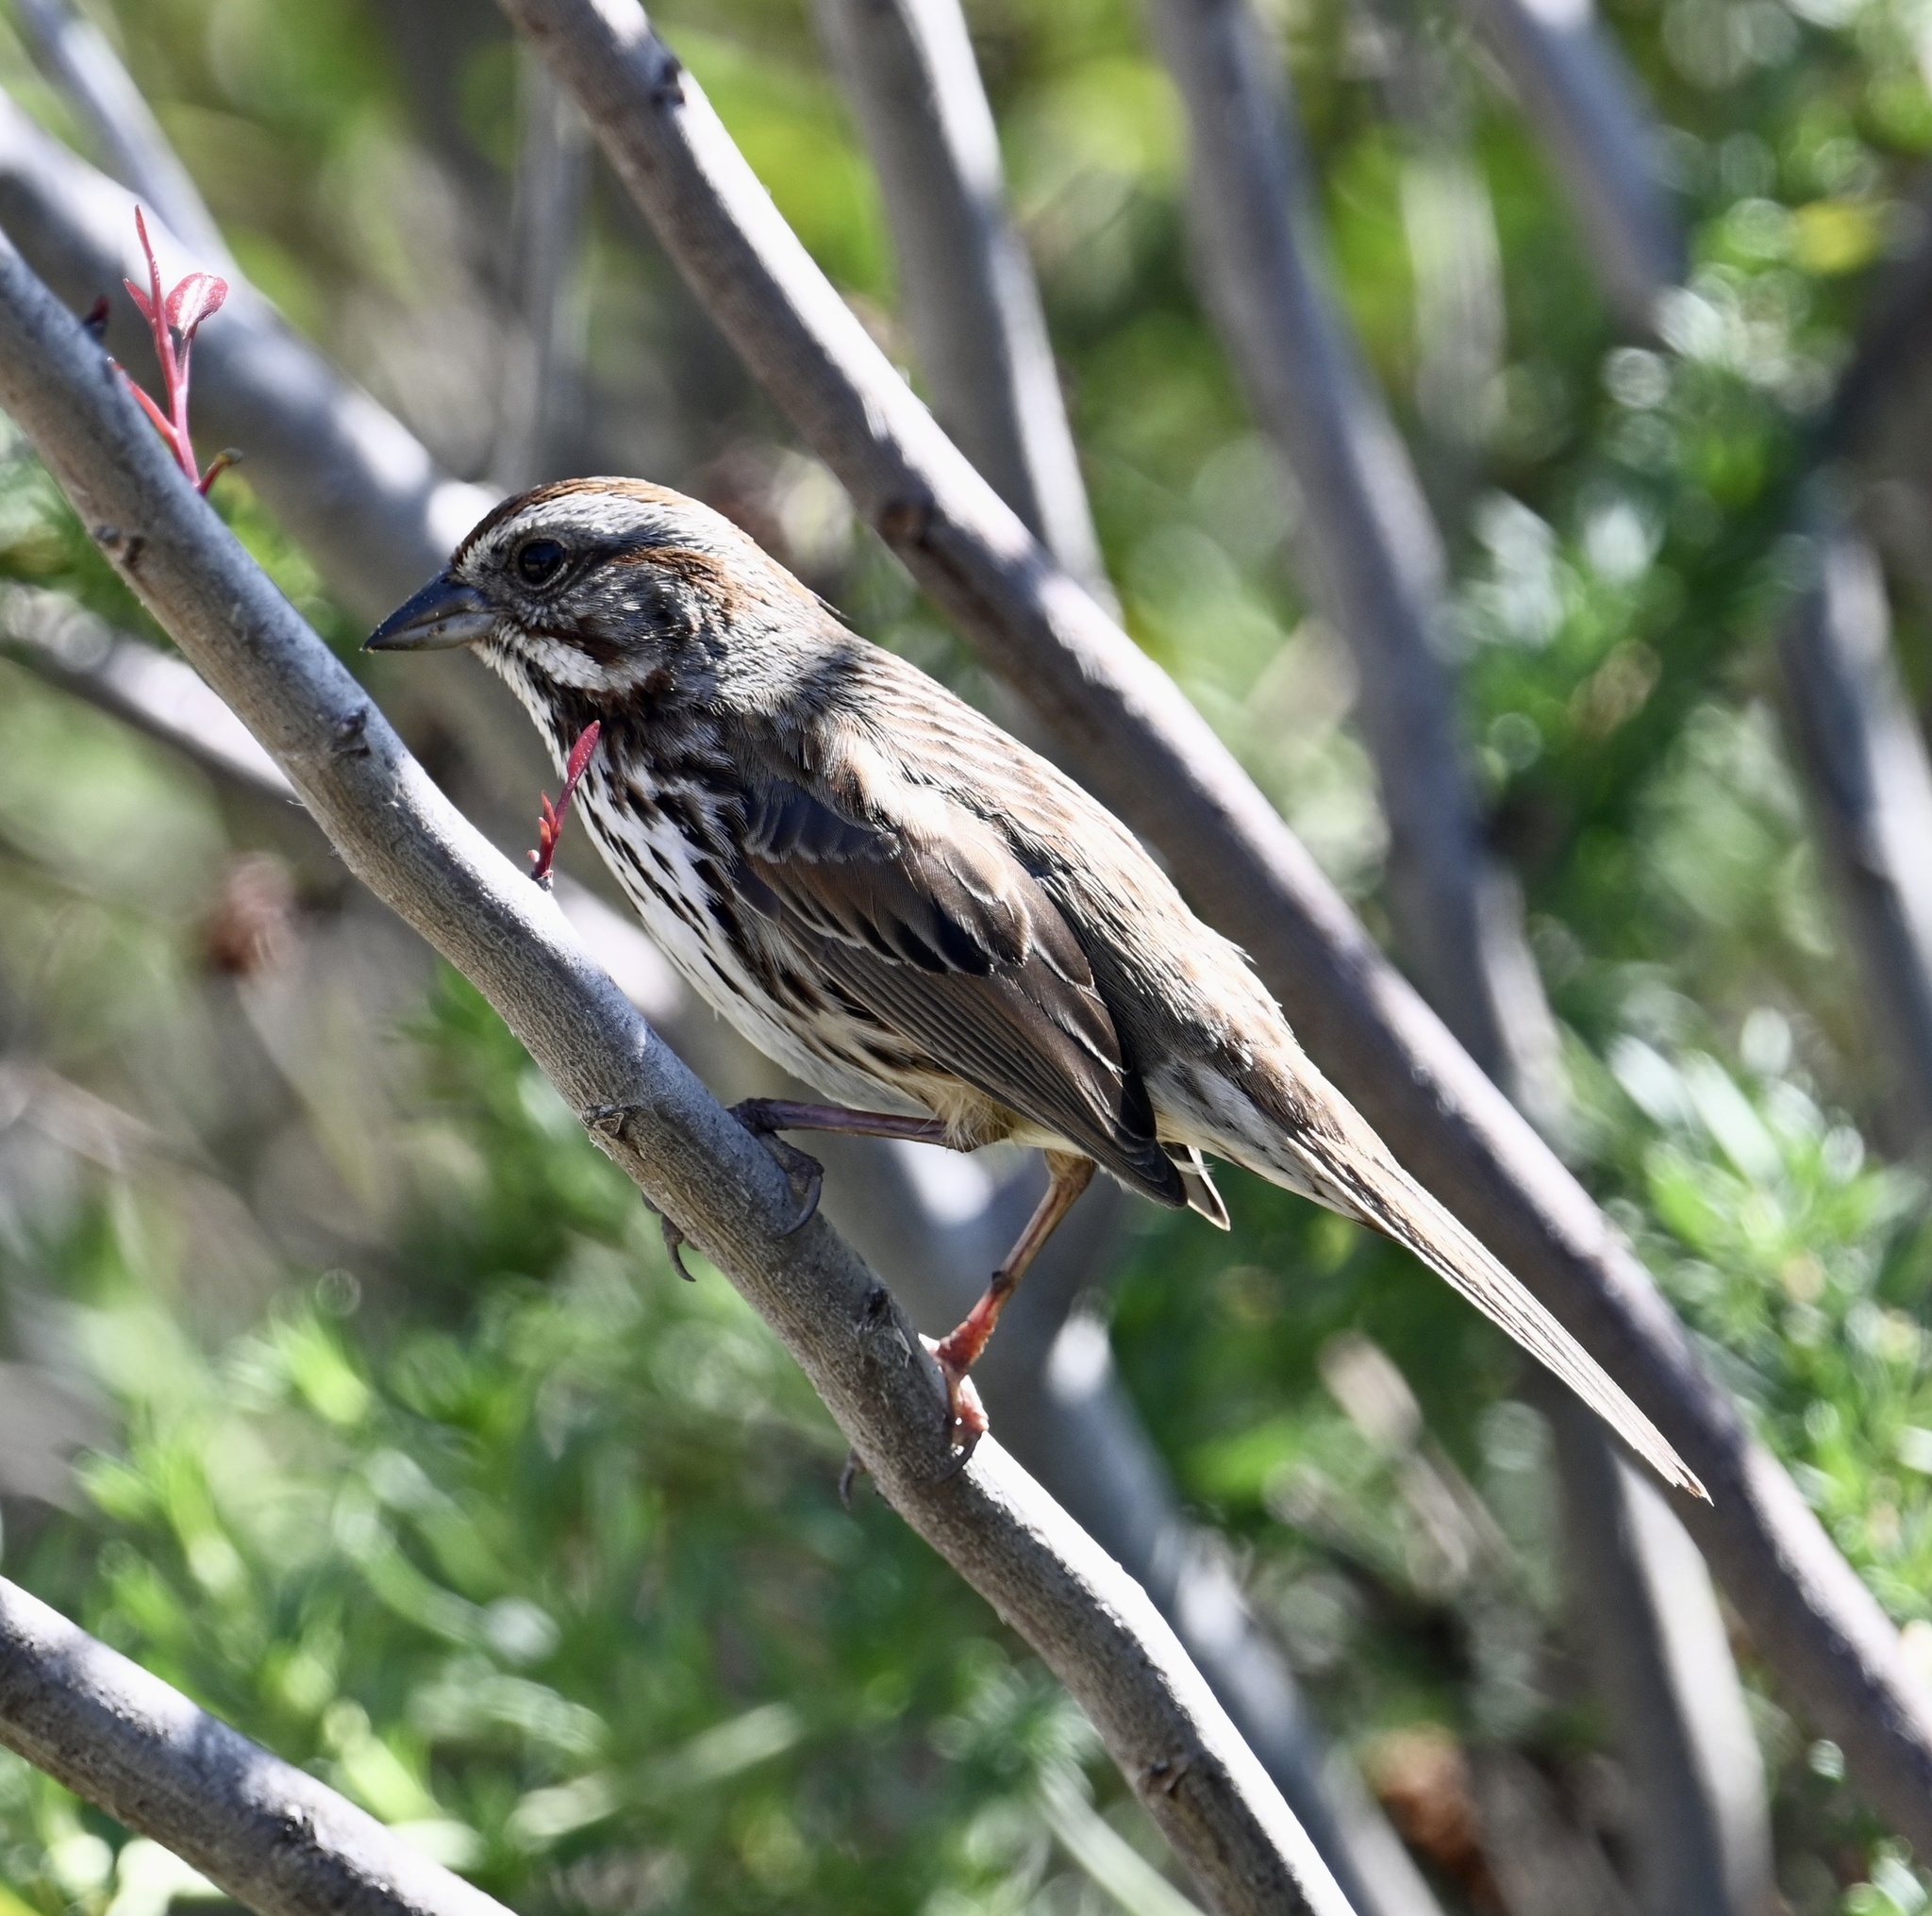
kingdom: Animalia
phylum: Chordata
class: Aves
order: Passeriformes
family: Passerellidae
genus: Melospiza
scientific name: Melospiza melodia
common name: Song sparrow
